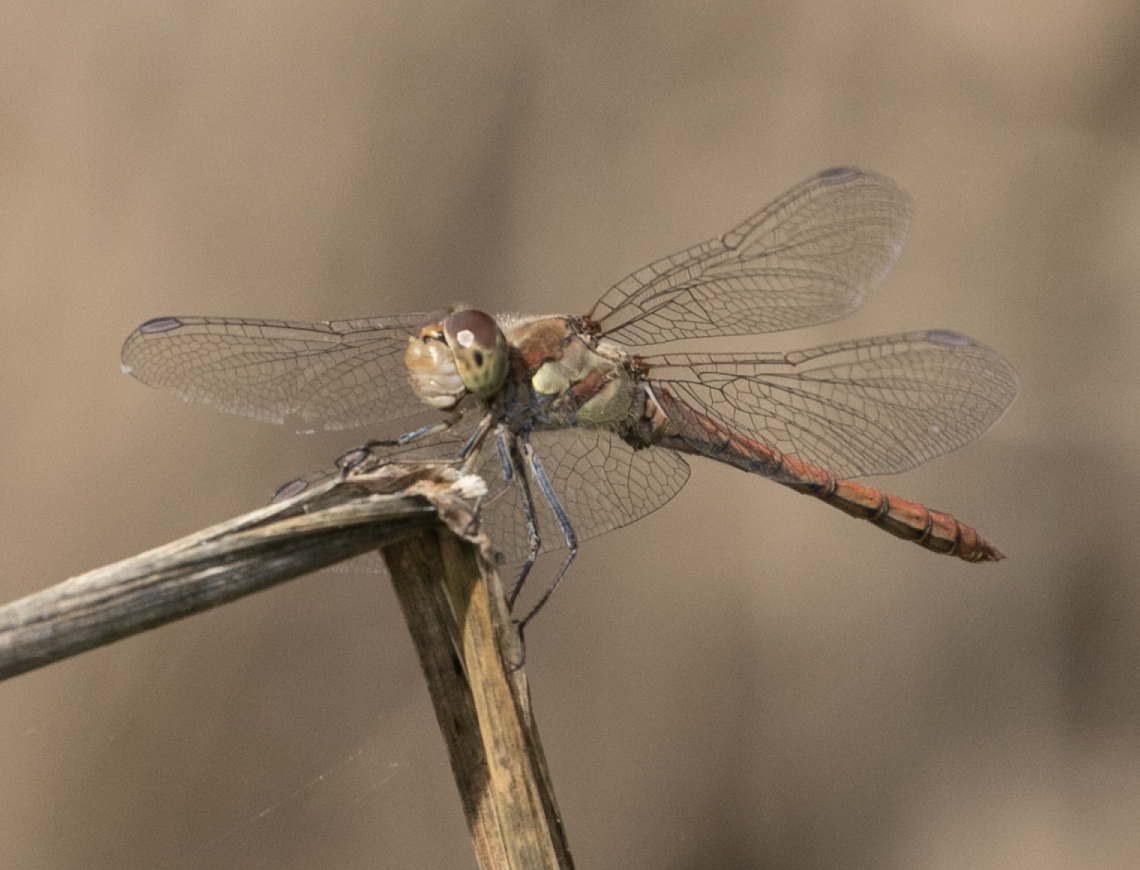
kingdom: Animalia
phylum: Arthropoda
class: Insecta
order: Odonata
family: Libellulidae
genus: Sympetrum
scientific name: Sympetrum striolatum
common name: Common darter
